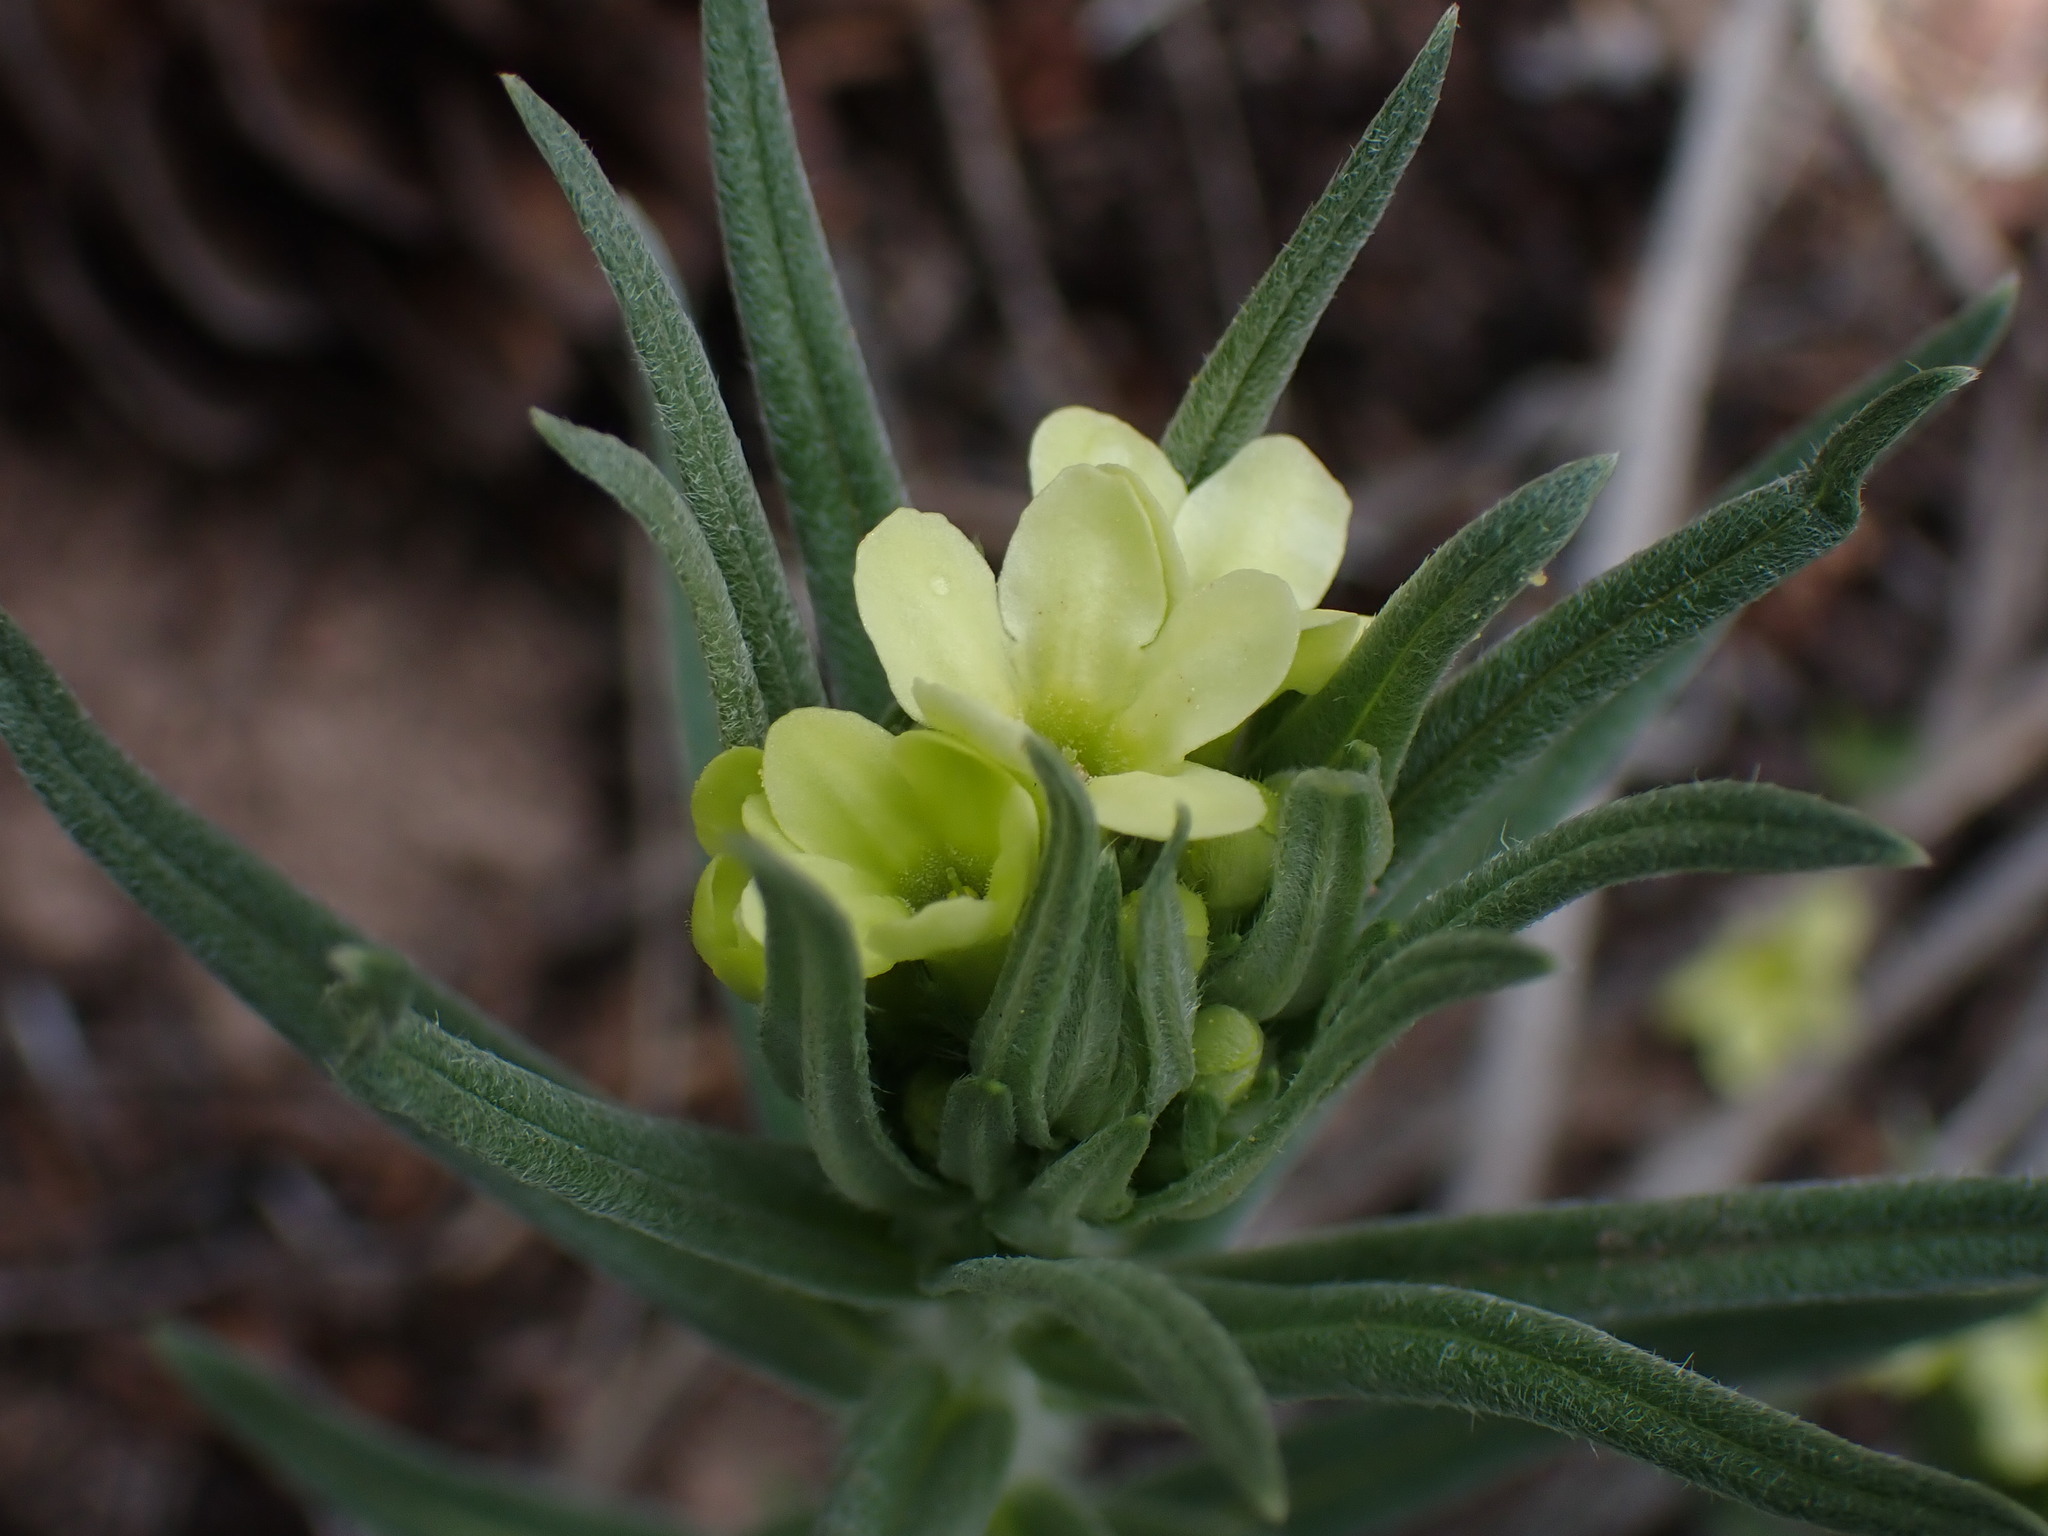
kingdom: Plantae
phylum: Tracheophyta
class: Magnoliopsida
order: Boraginales
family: Boraginaceae
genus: Lithospermum
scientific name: Lithospermum ruderale
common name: Western gromwell
